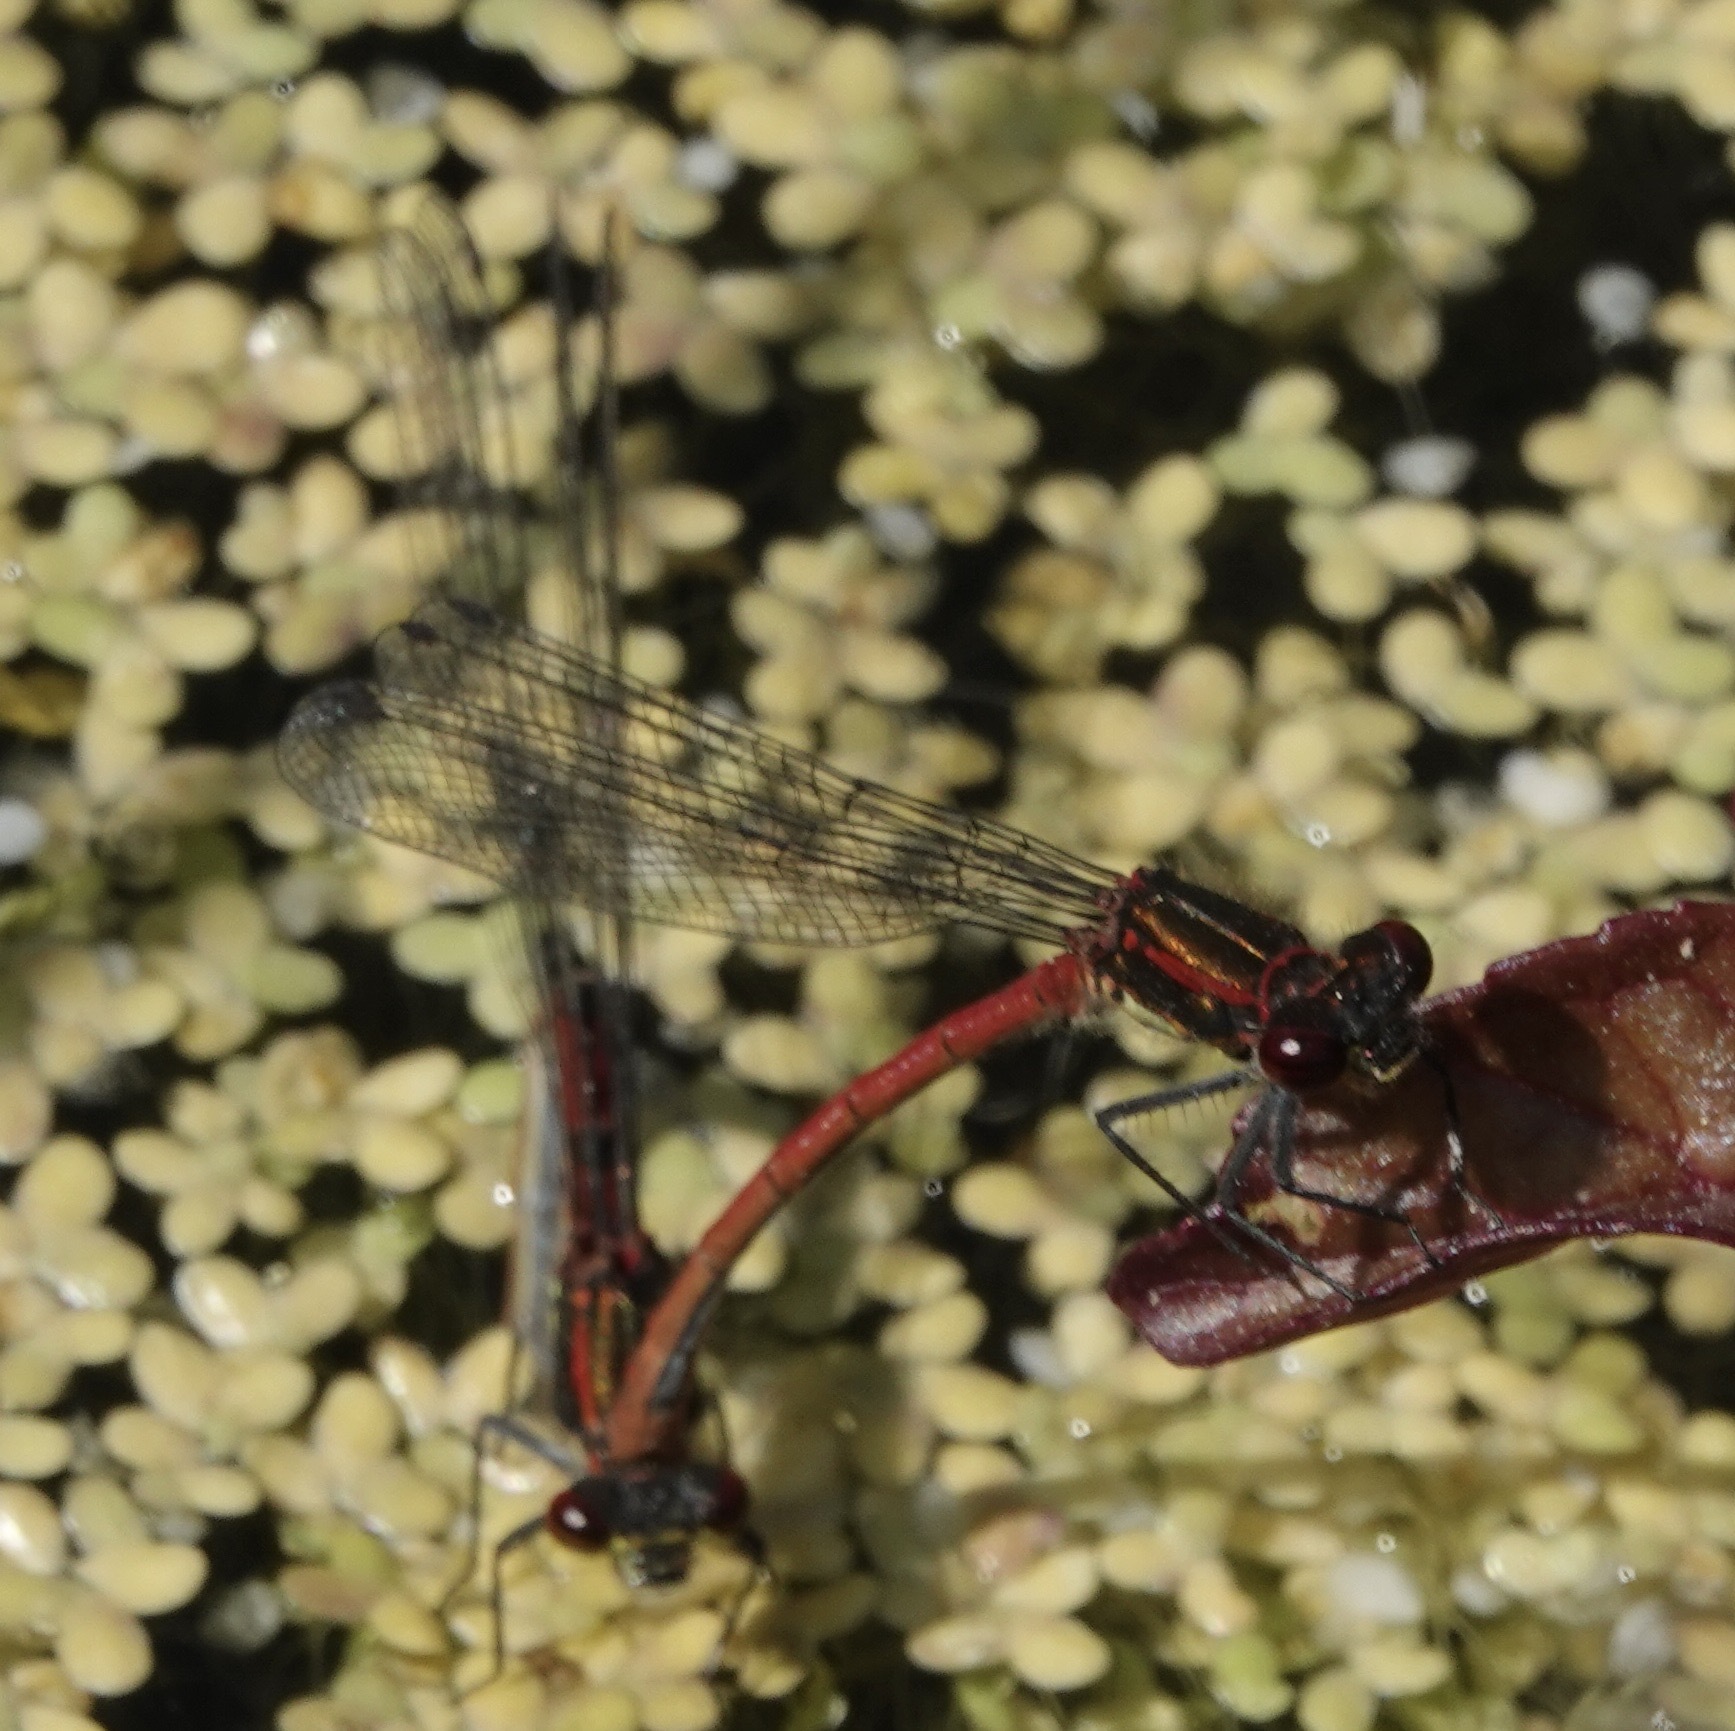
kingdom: Animalia
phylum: Arthropoda
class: Insecta
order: Odonata
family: Coenagrionidae
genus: Pyrrhosoma
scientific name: Pyrrhosoma nymphula
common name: Large red damsel
